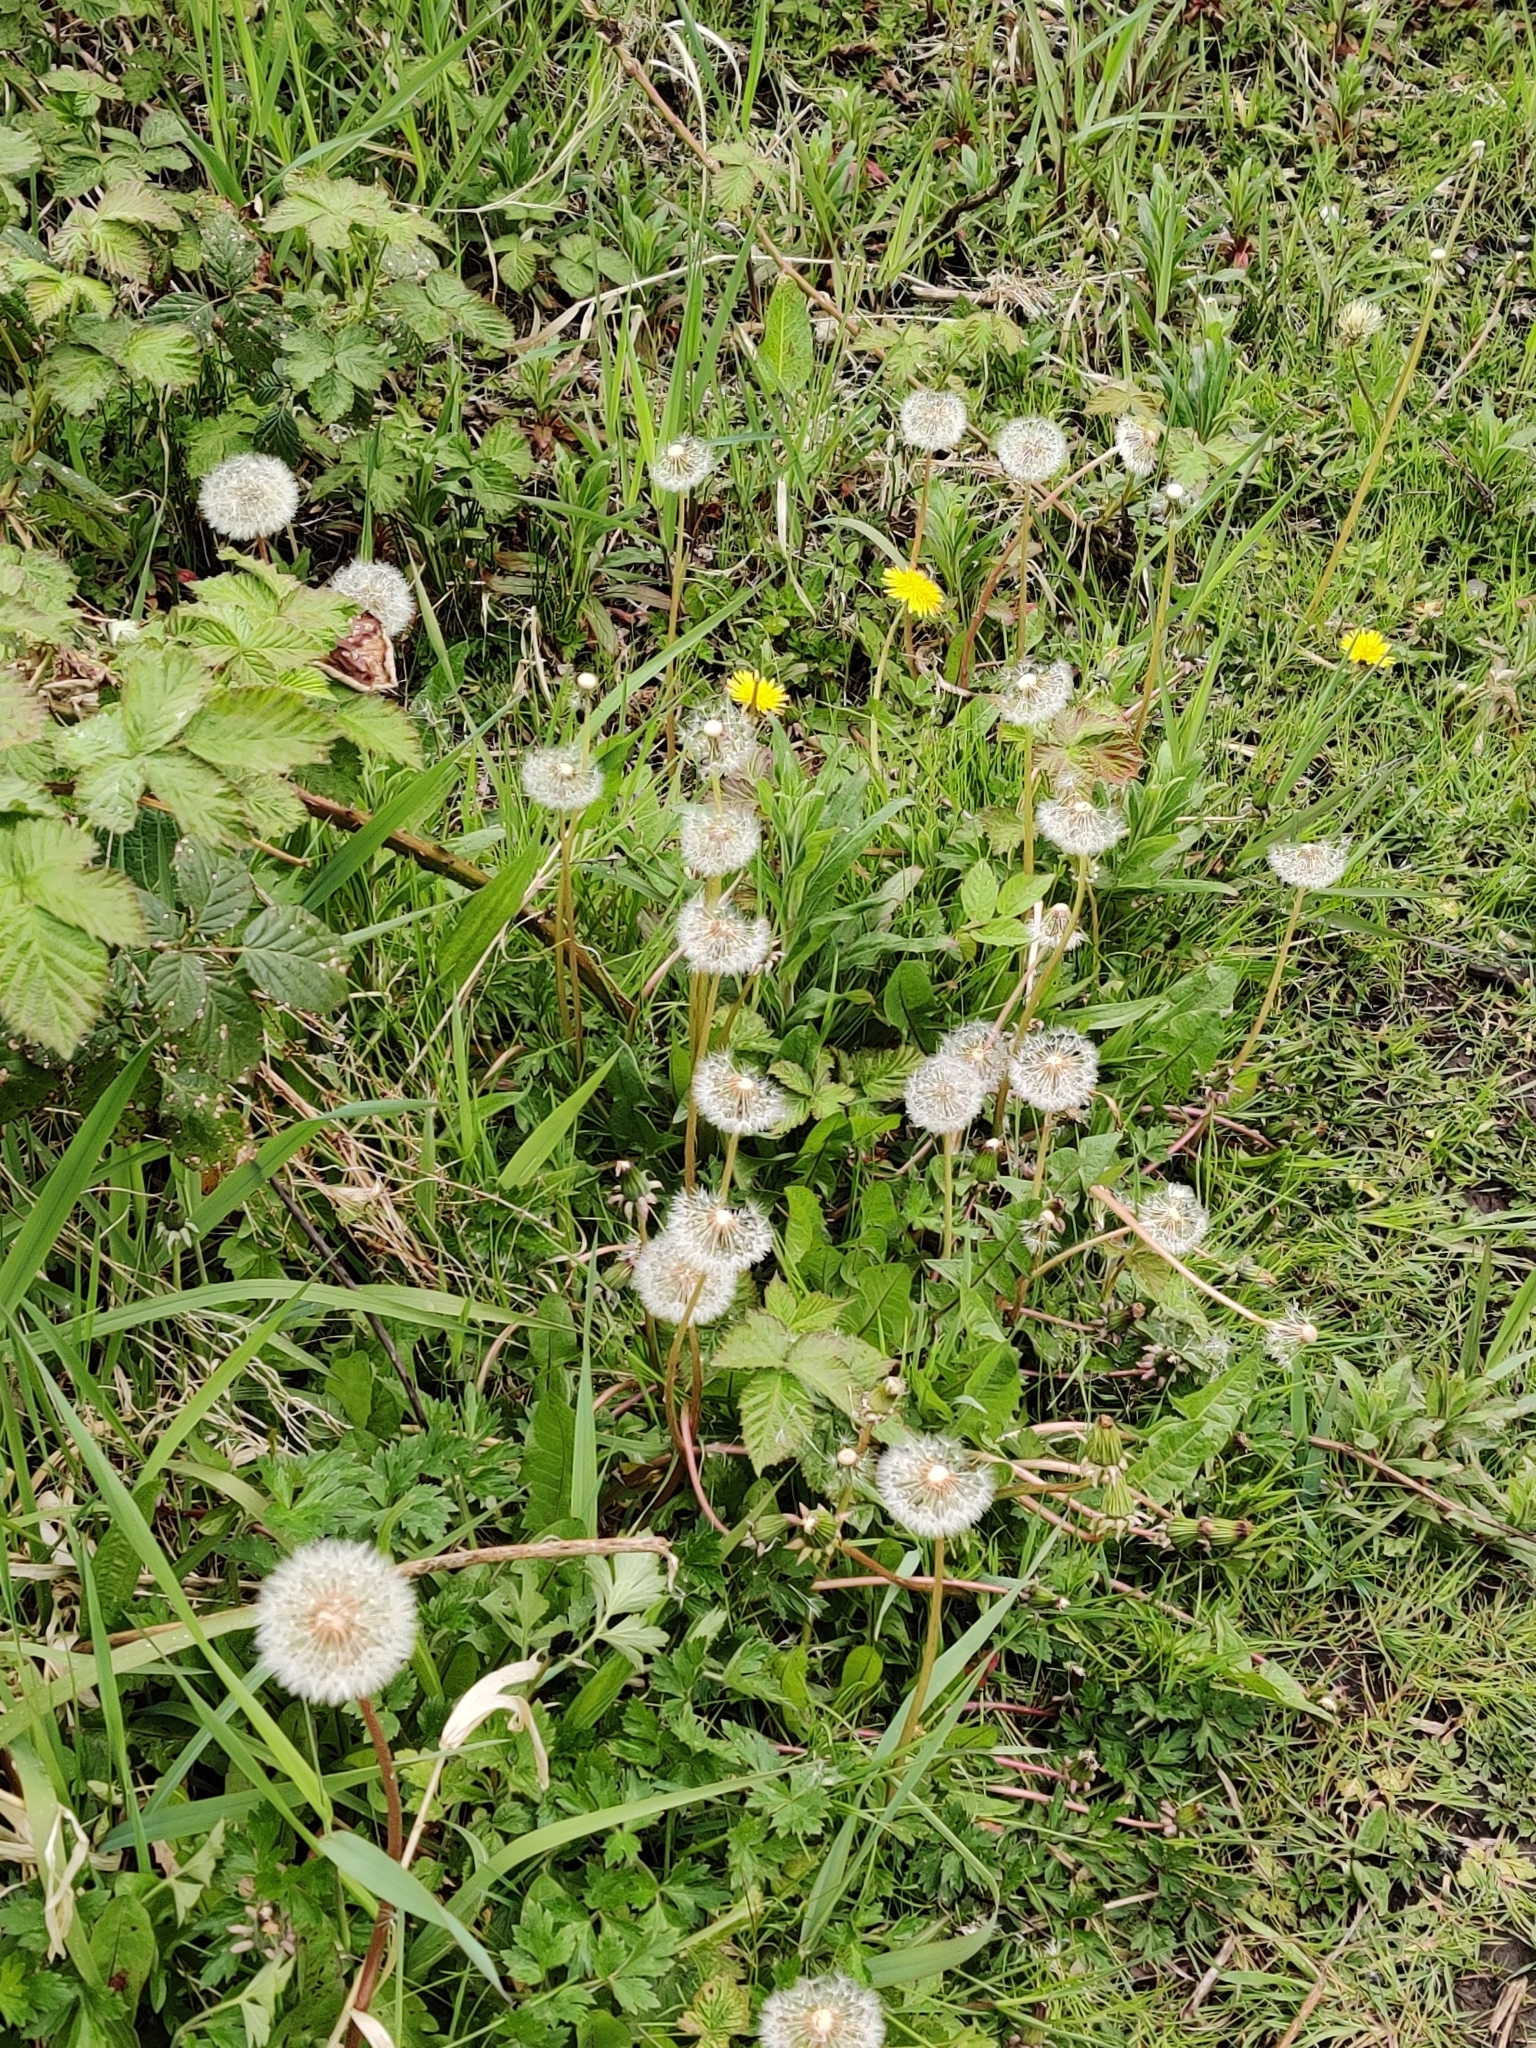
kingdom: Plantae
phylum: Tracheophyta
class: Magnoliopsida
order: Asterales
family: Asteraceae
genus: Taraxacum
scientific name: Taraxacum officinale
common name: Common dandelion
